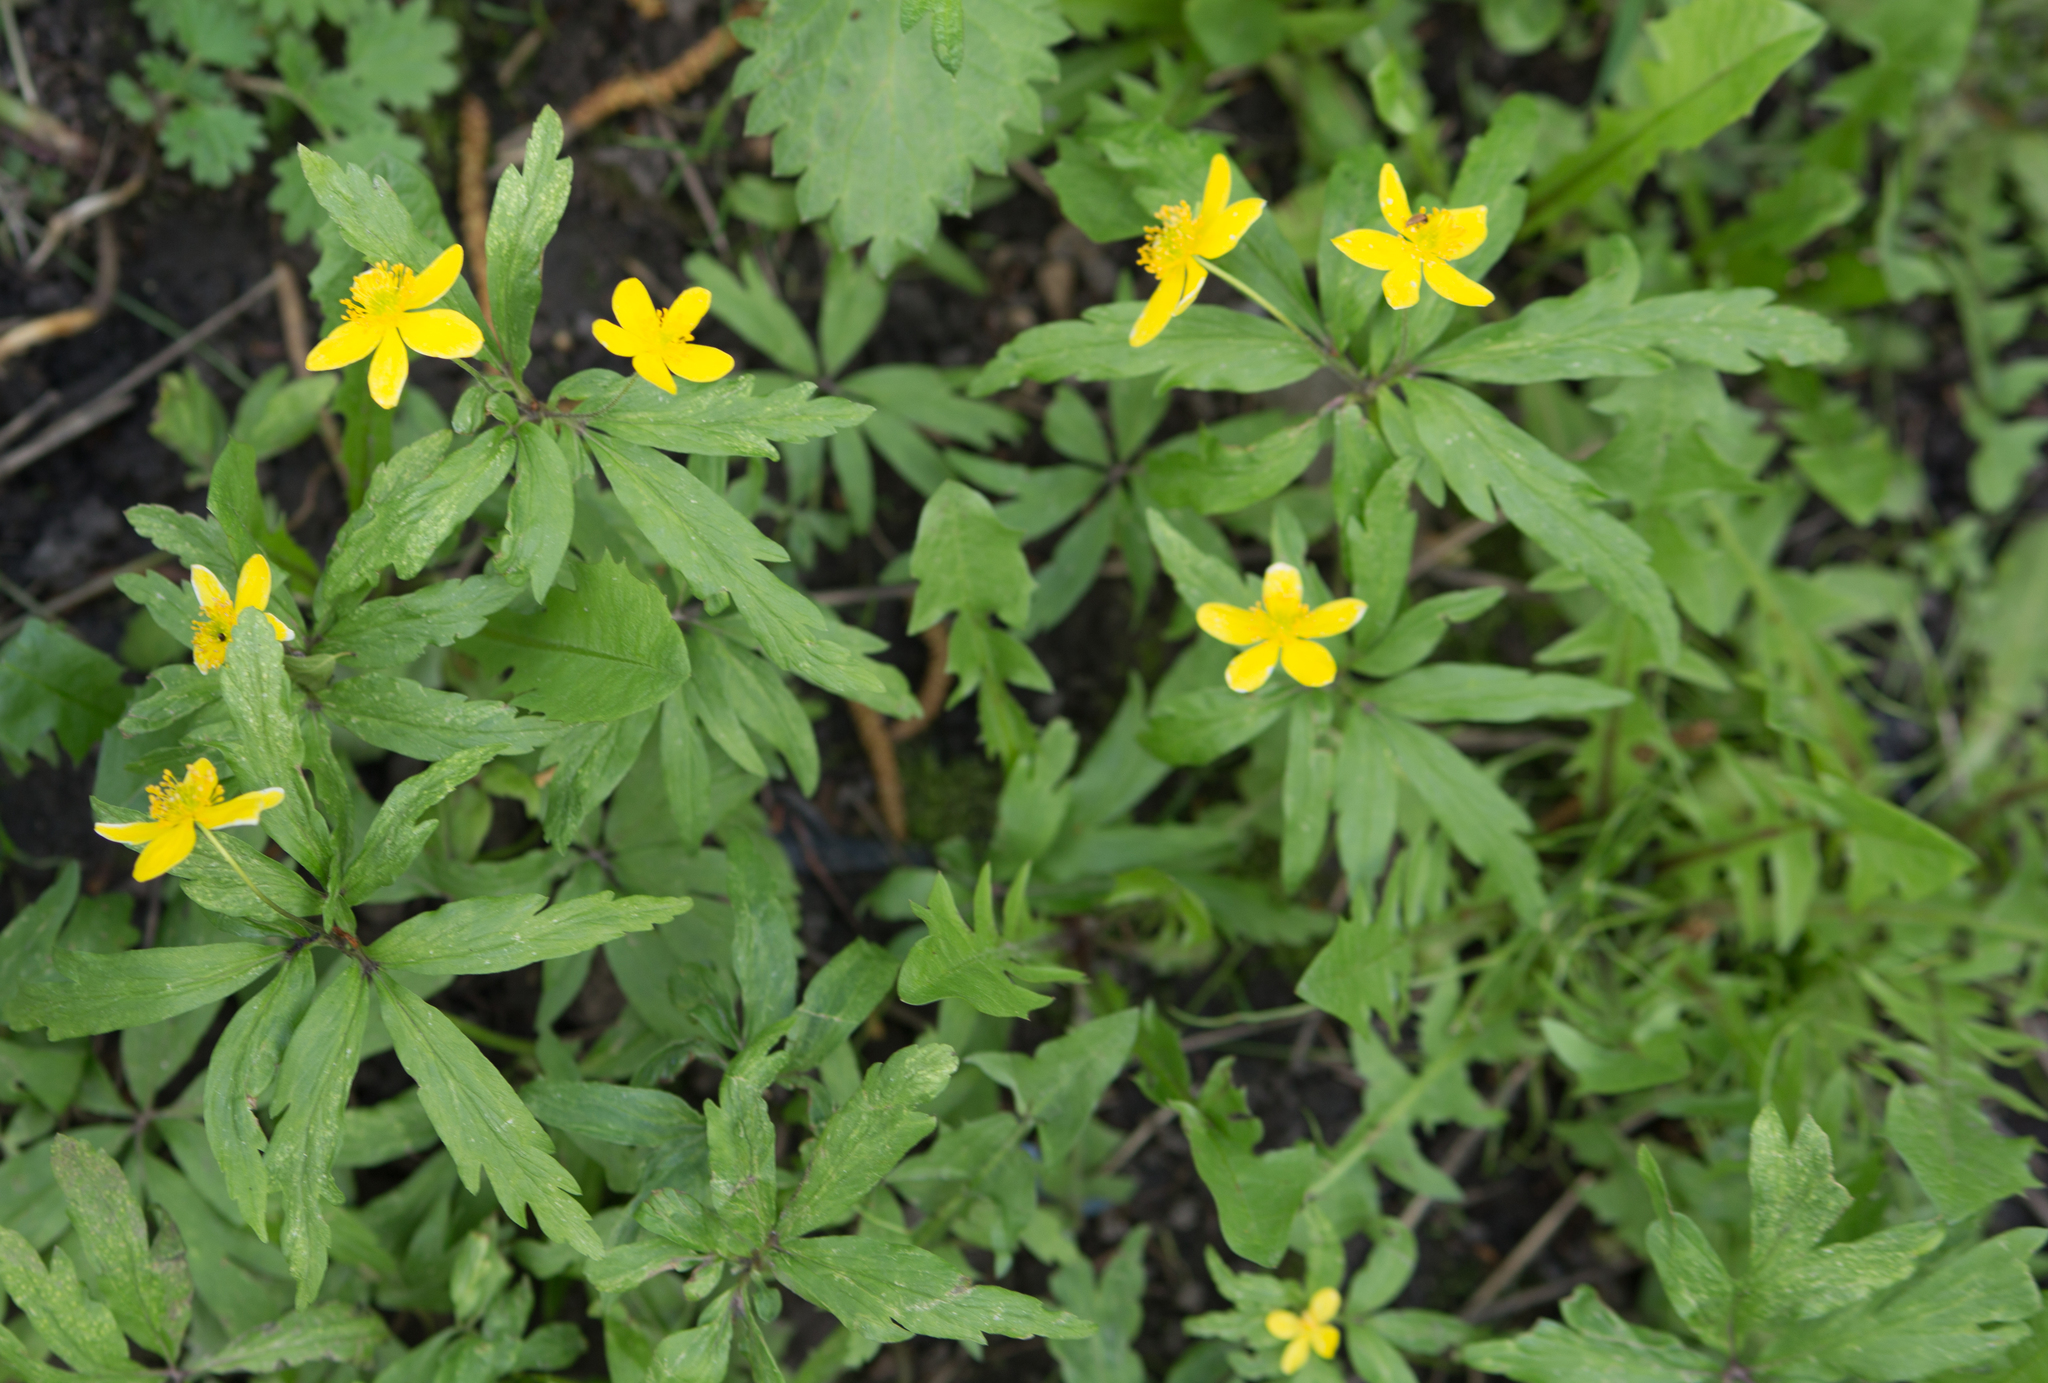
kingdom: Plantae
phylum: Tracheophyta
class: Magnoliopsida
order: Ranunculales
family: Ranunculaceae
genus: Anemone
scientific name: Anemone ranunculoides
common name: Yellow anemone
